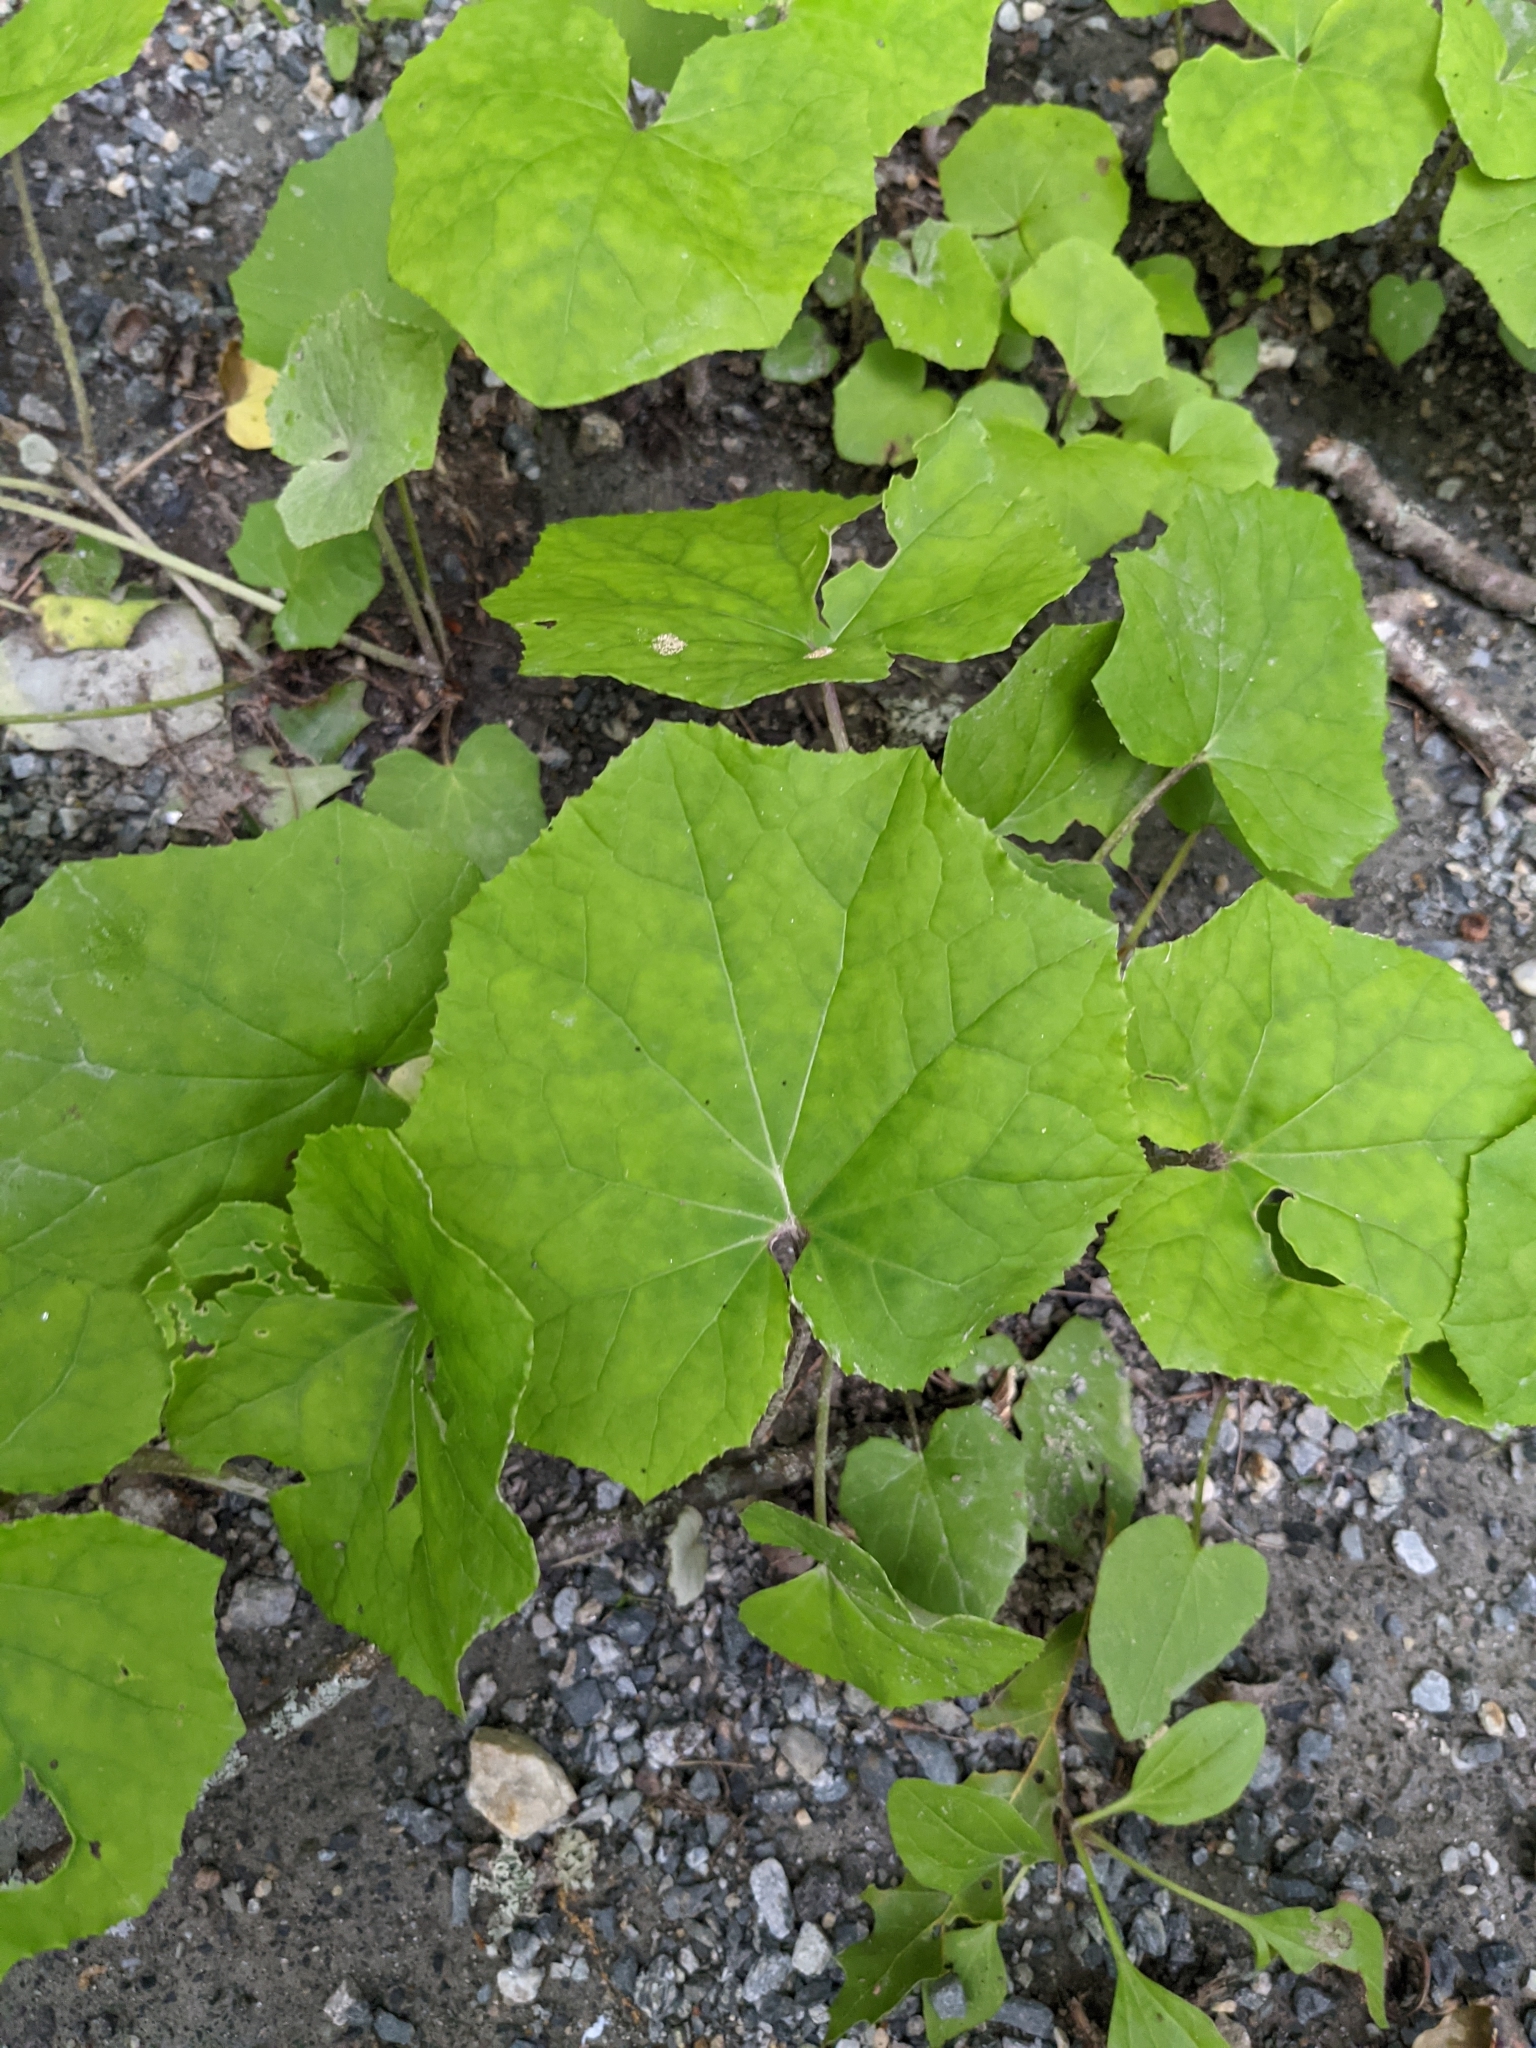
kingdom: Plantae
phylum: Tracheophyta
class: Magnoliopsida
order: Asterales
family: Asteraceae
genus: Tussilago
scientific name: Tussilago farfara
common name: Coltsfoot
